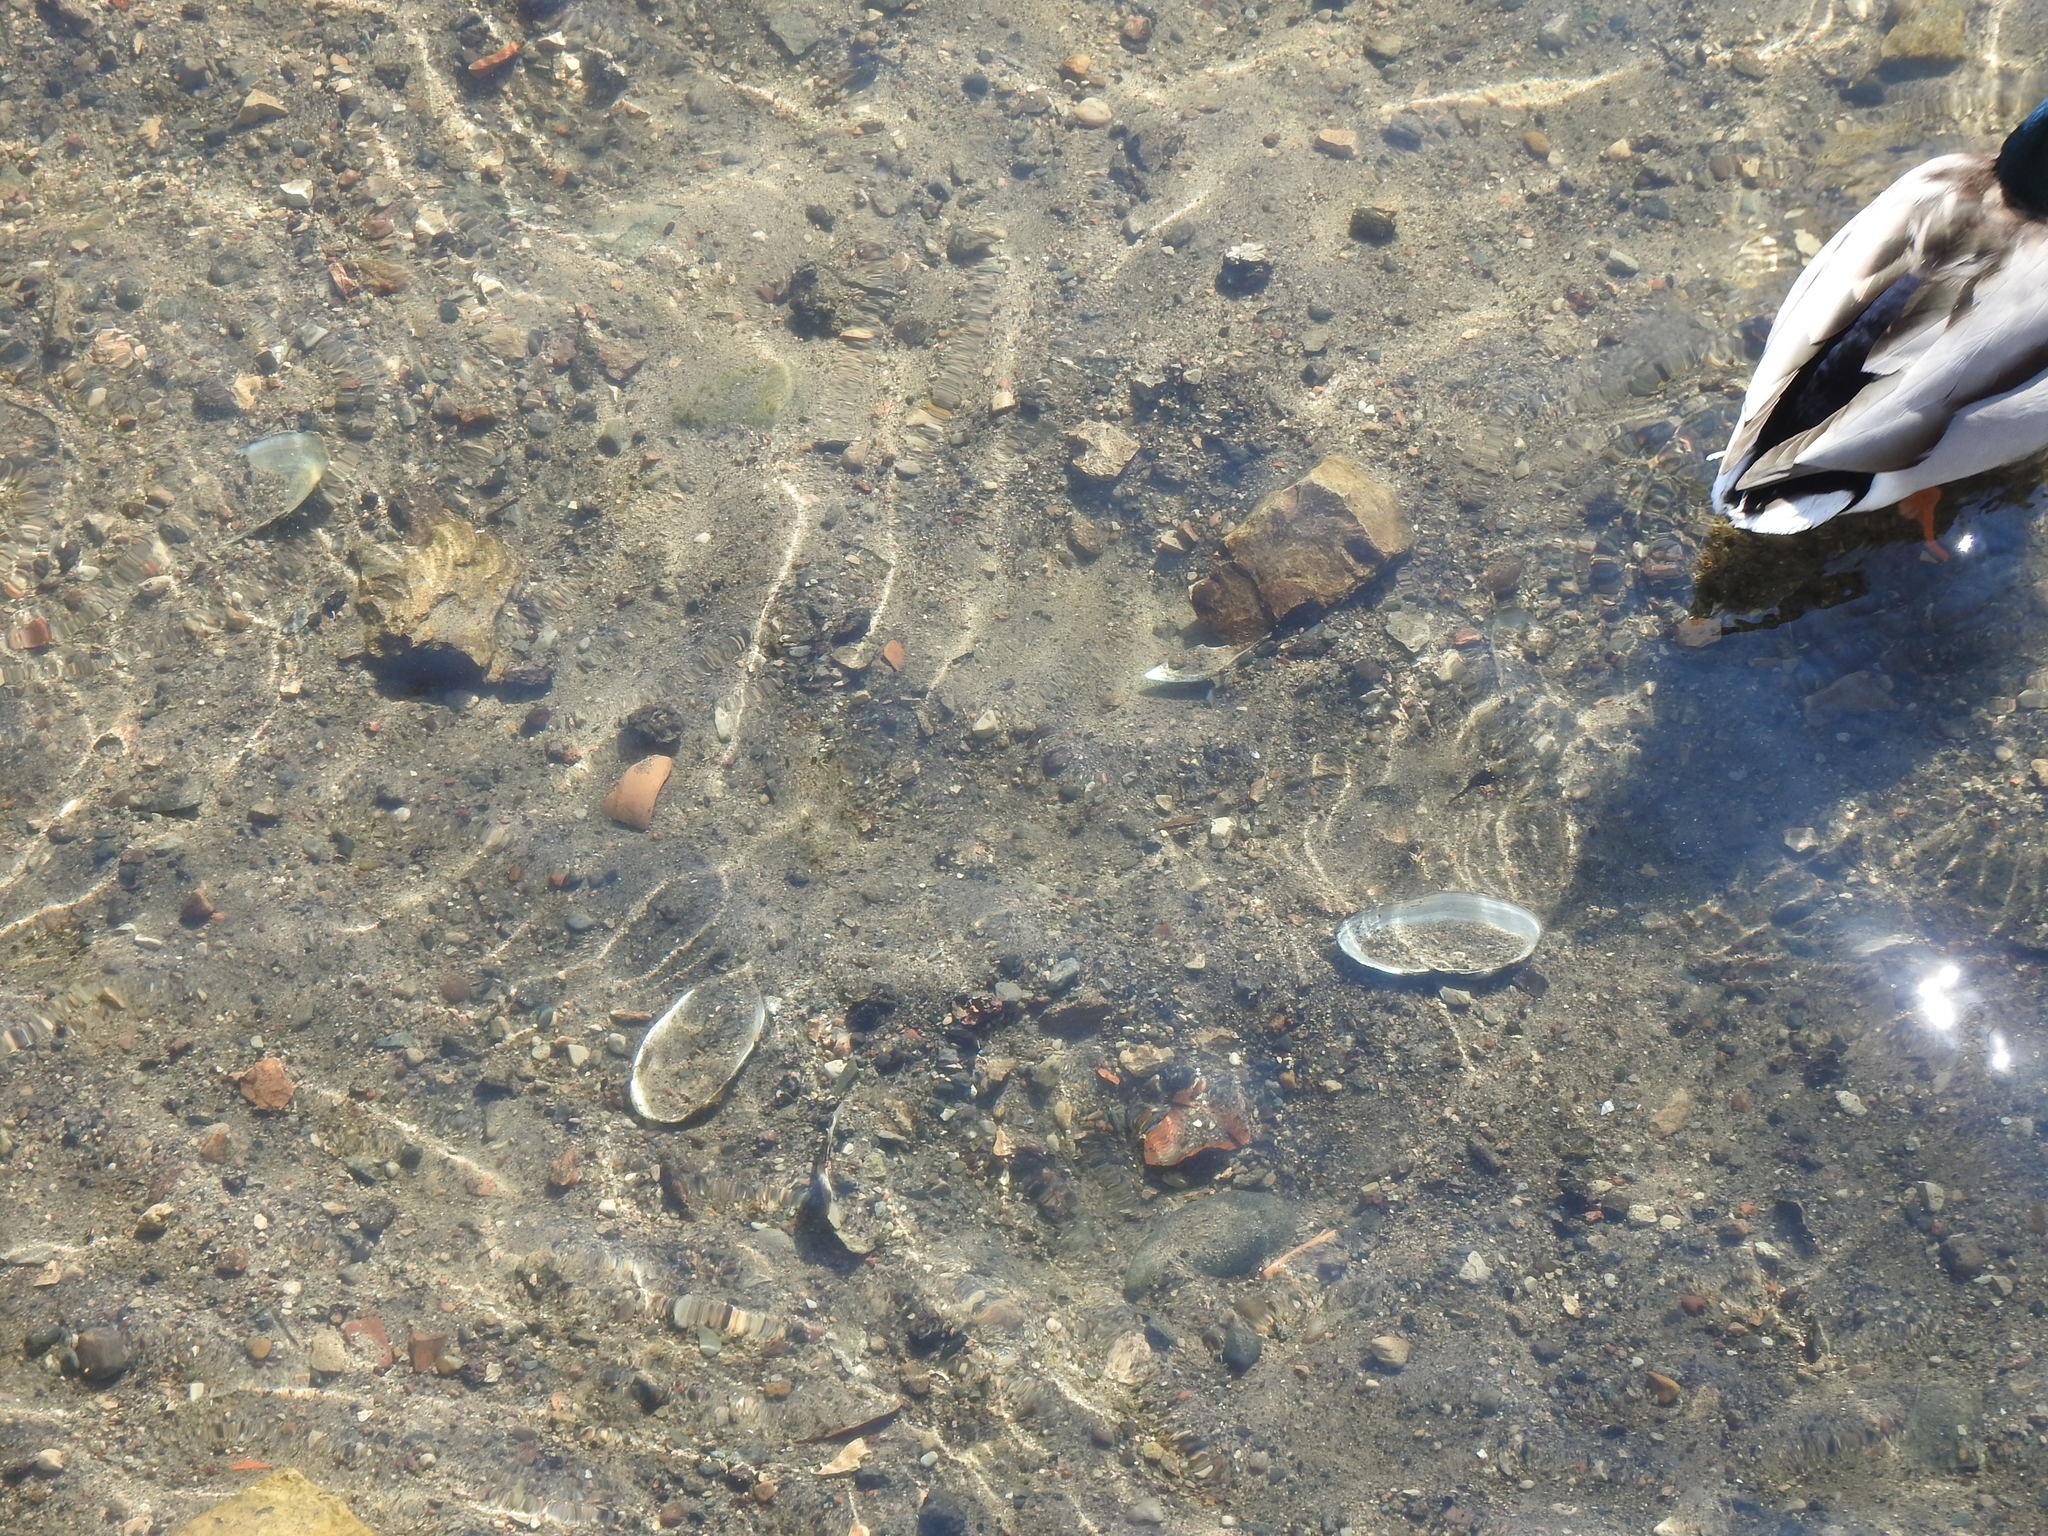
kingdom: Animalia
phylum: Mollusca
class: Bivalvia
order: Unionida
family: Unionidae
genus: Pyganodon
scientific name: Pyganodon grandis
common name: Giant floater
